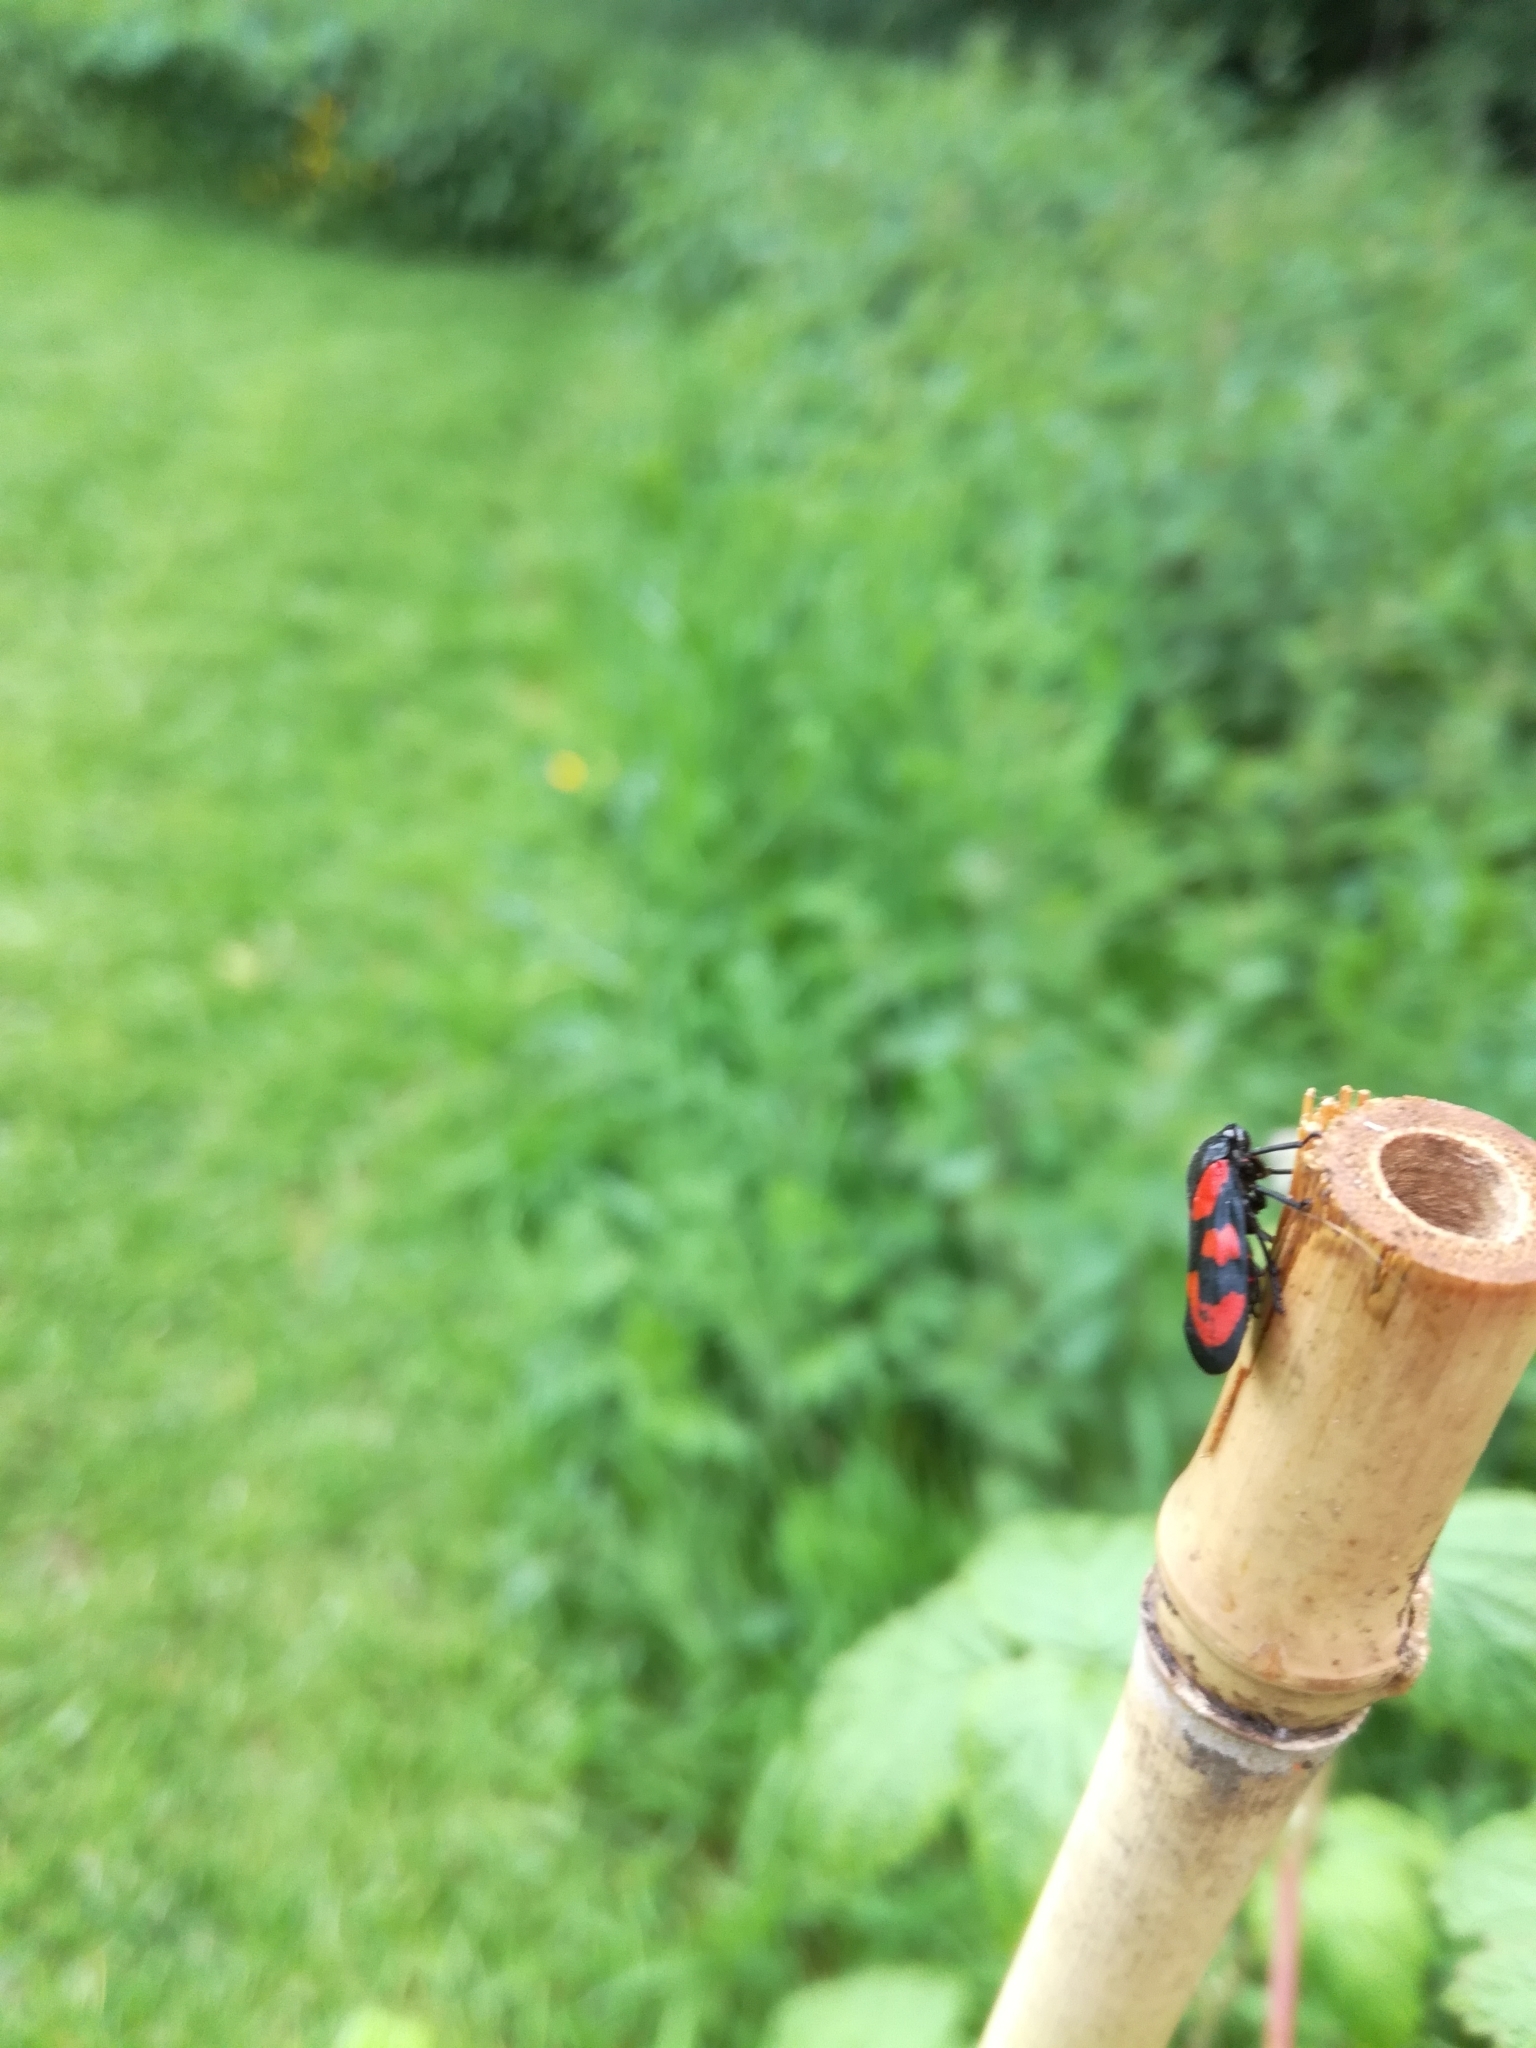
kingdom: Animalia
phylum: Arthropoda
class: Insecta
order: Hemiptera
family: Cercopidae
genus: Cercopis
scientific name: Cercopis vulnerata
